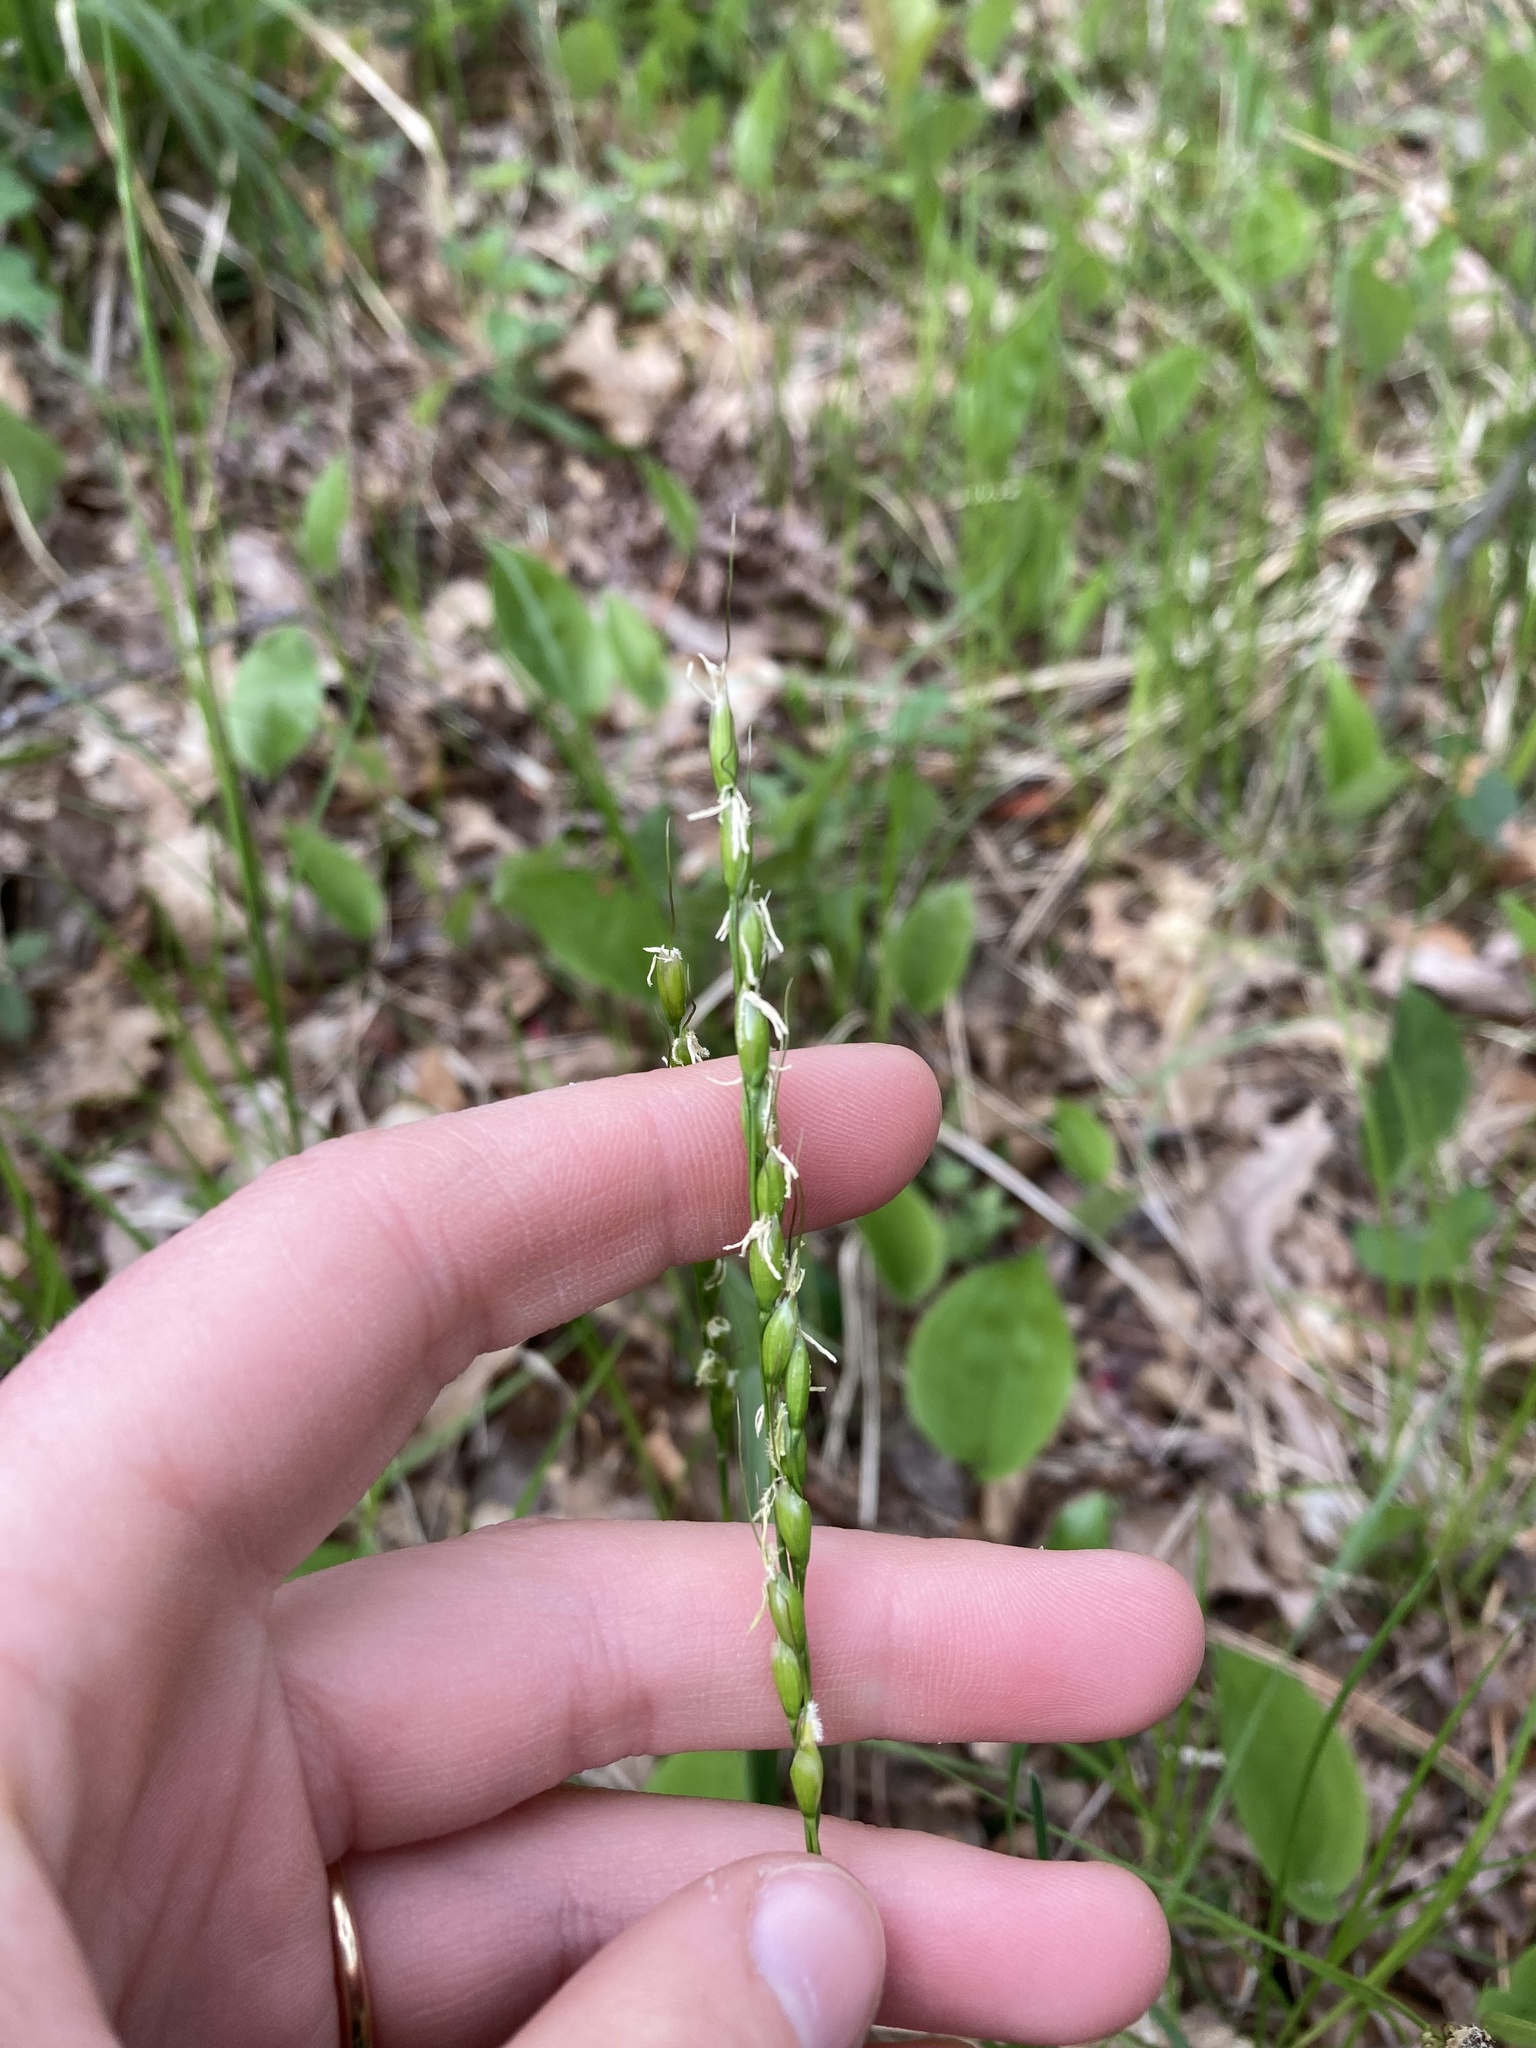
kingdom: Plantae
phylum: Tracheophyta
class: Liliopsida
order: Poales
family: Poaceae
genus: Oryzopsis
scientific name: Oryzopsis asperifolia
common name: Rough-leaved mountain rice
